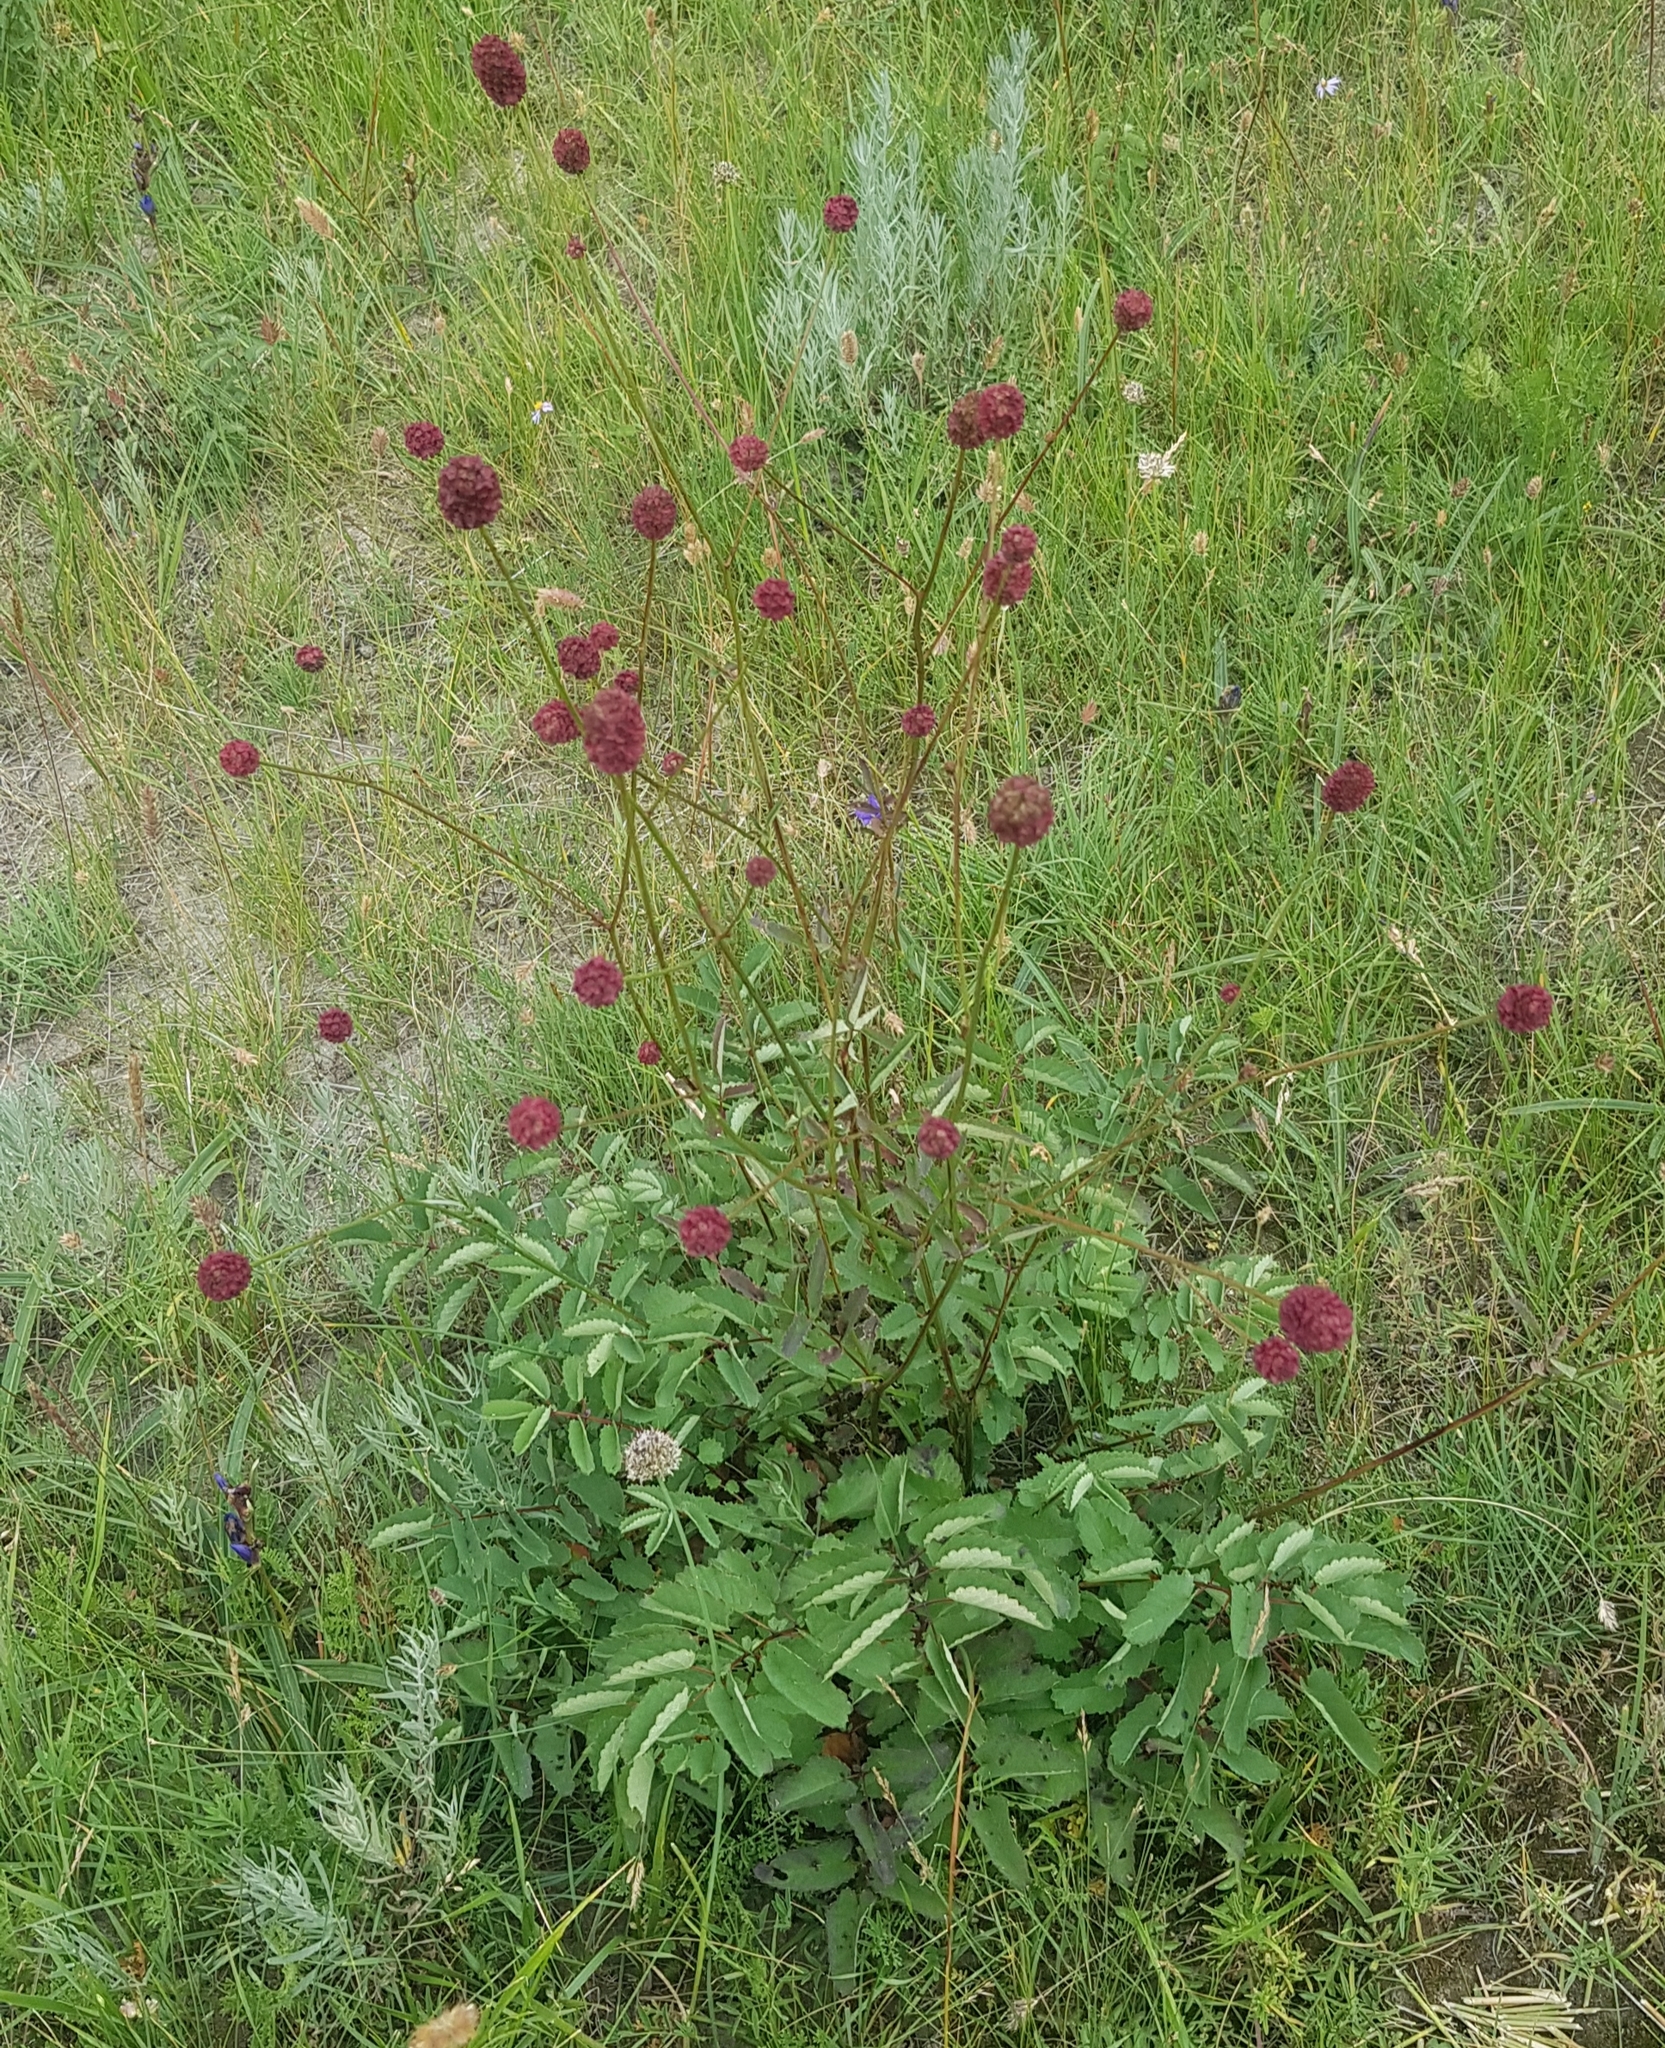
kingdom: Plantae
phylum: Tracheophyta
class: Magnoliopsida
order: Rosales
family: Rosaceae
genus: Sanguisorba
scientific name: Sanguisorba officinalis
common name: Great burnet
